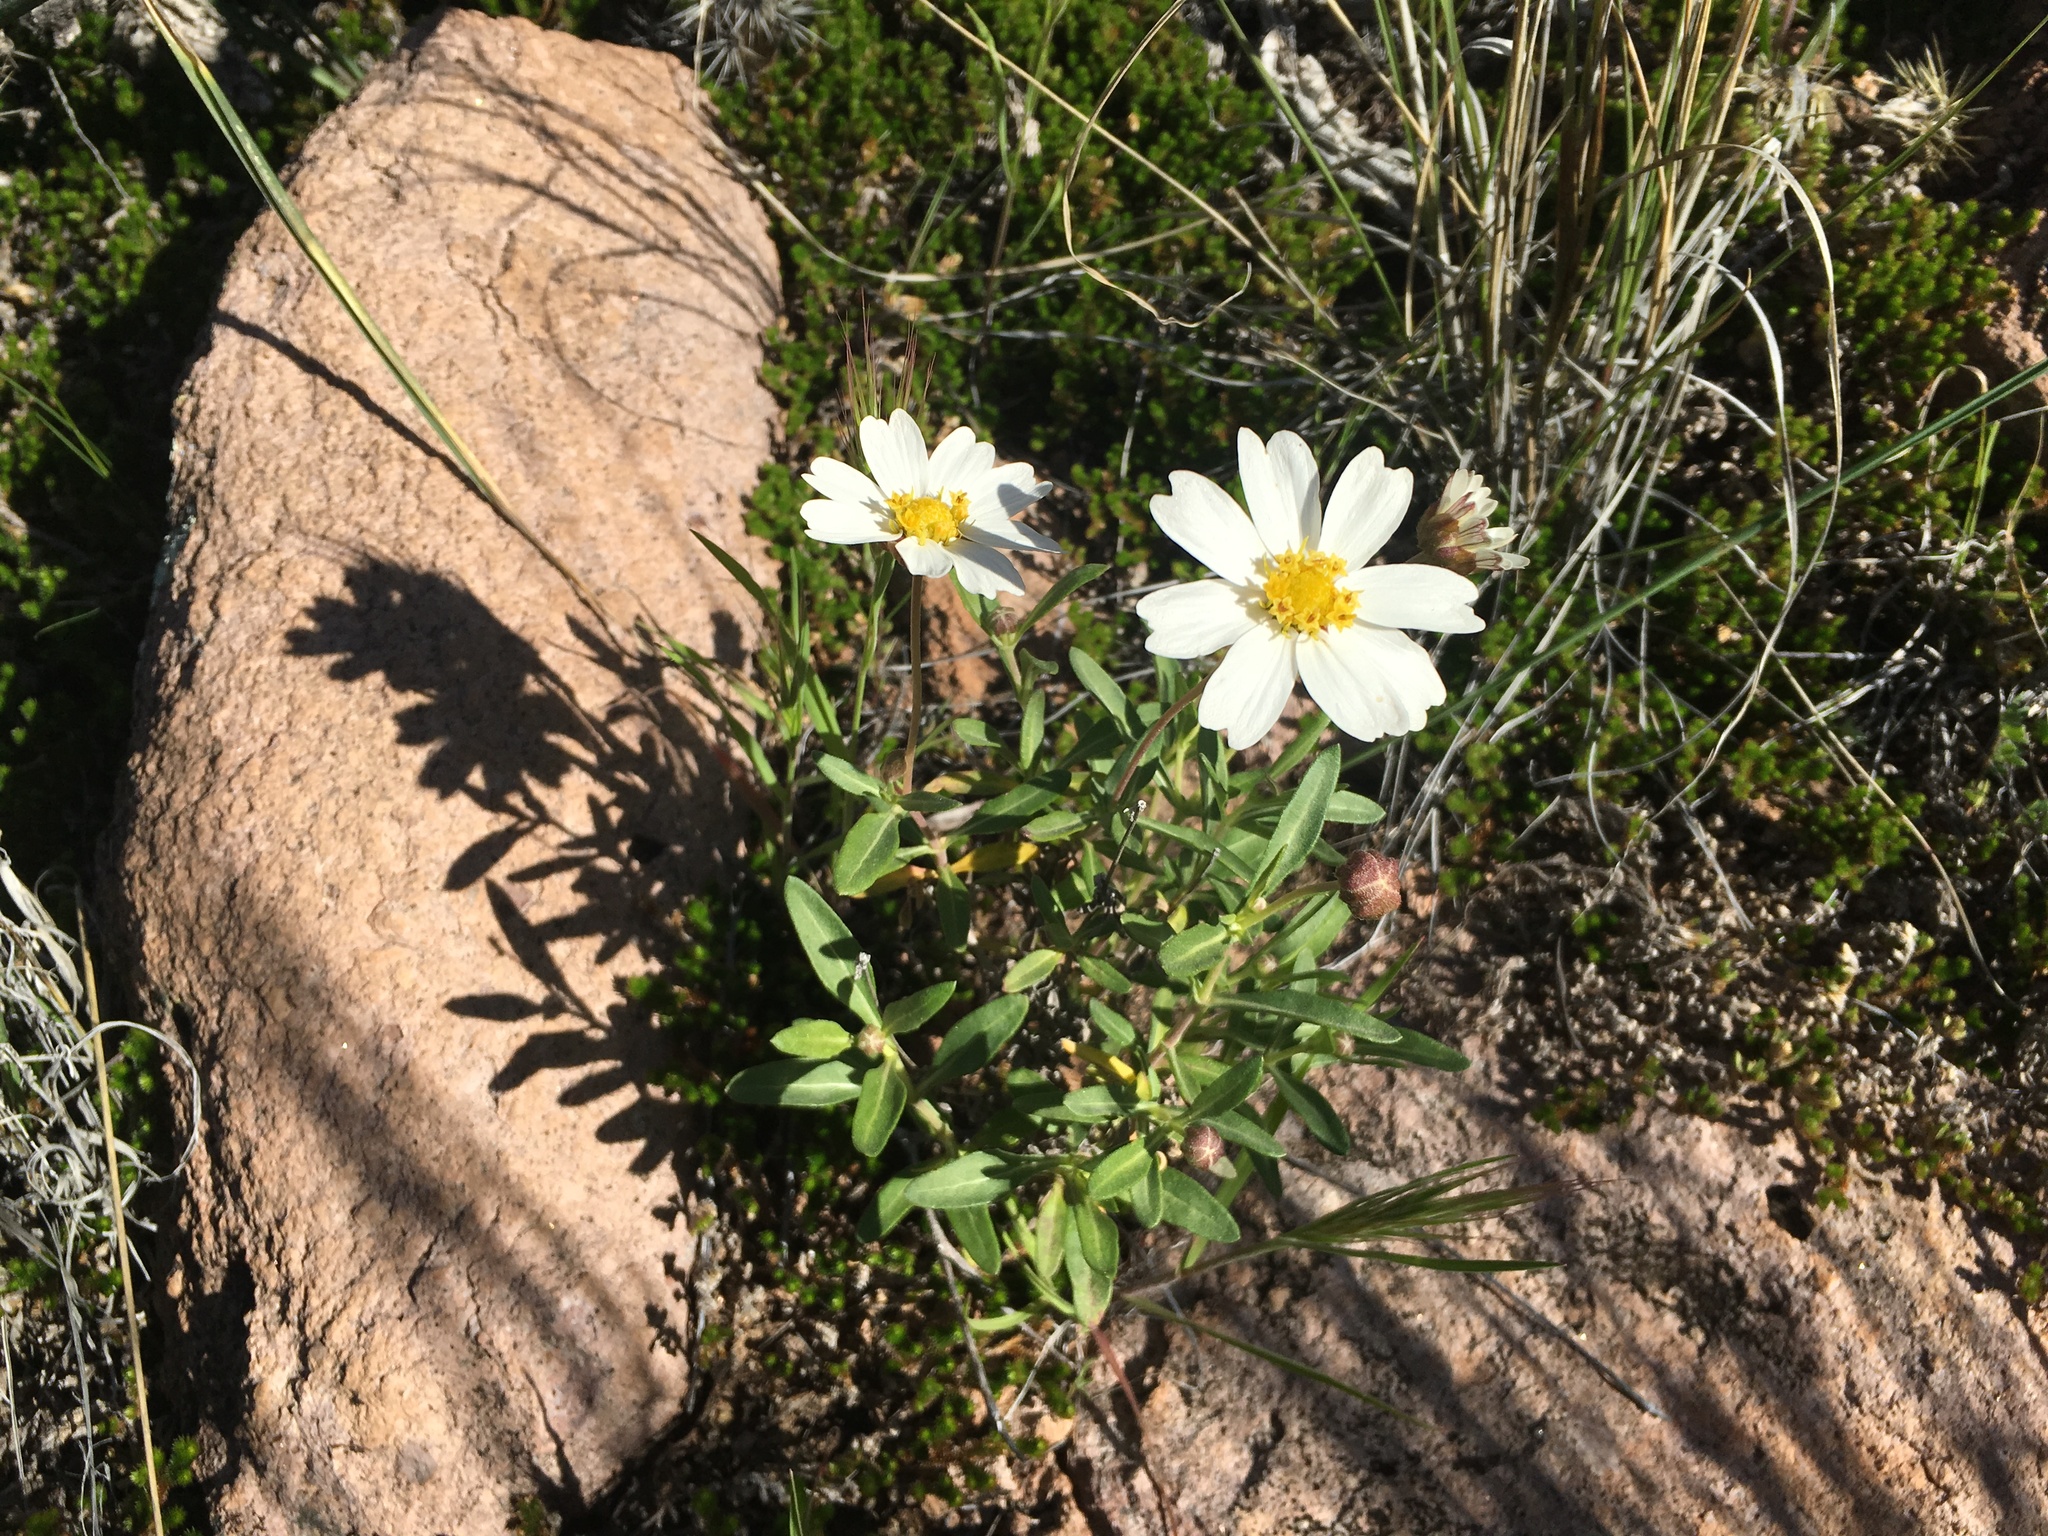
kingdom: Plantae
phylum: Tracheophyta
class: Magnoliopsida
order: Asterales
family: Asteraceae
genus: Melampodium
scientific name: Melampodium leucanthum
